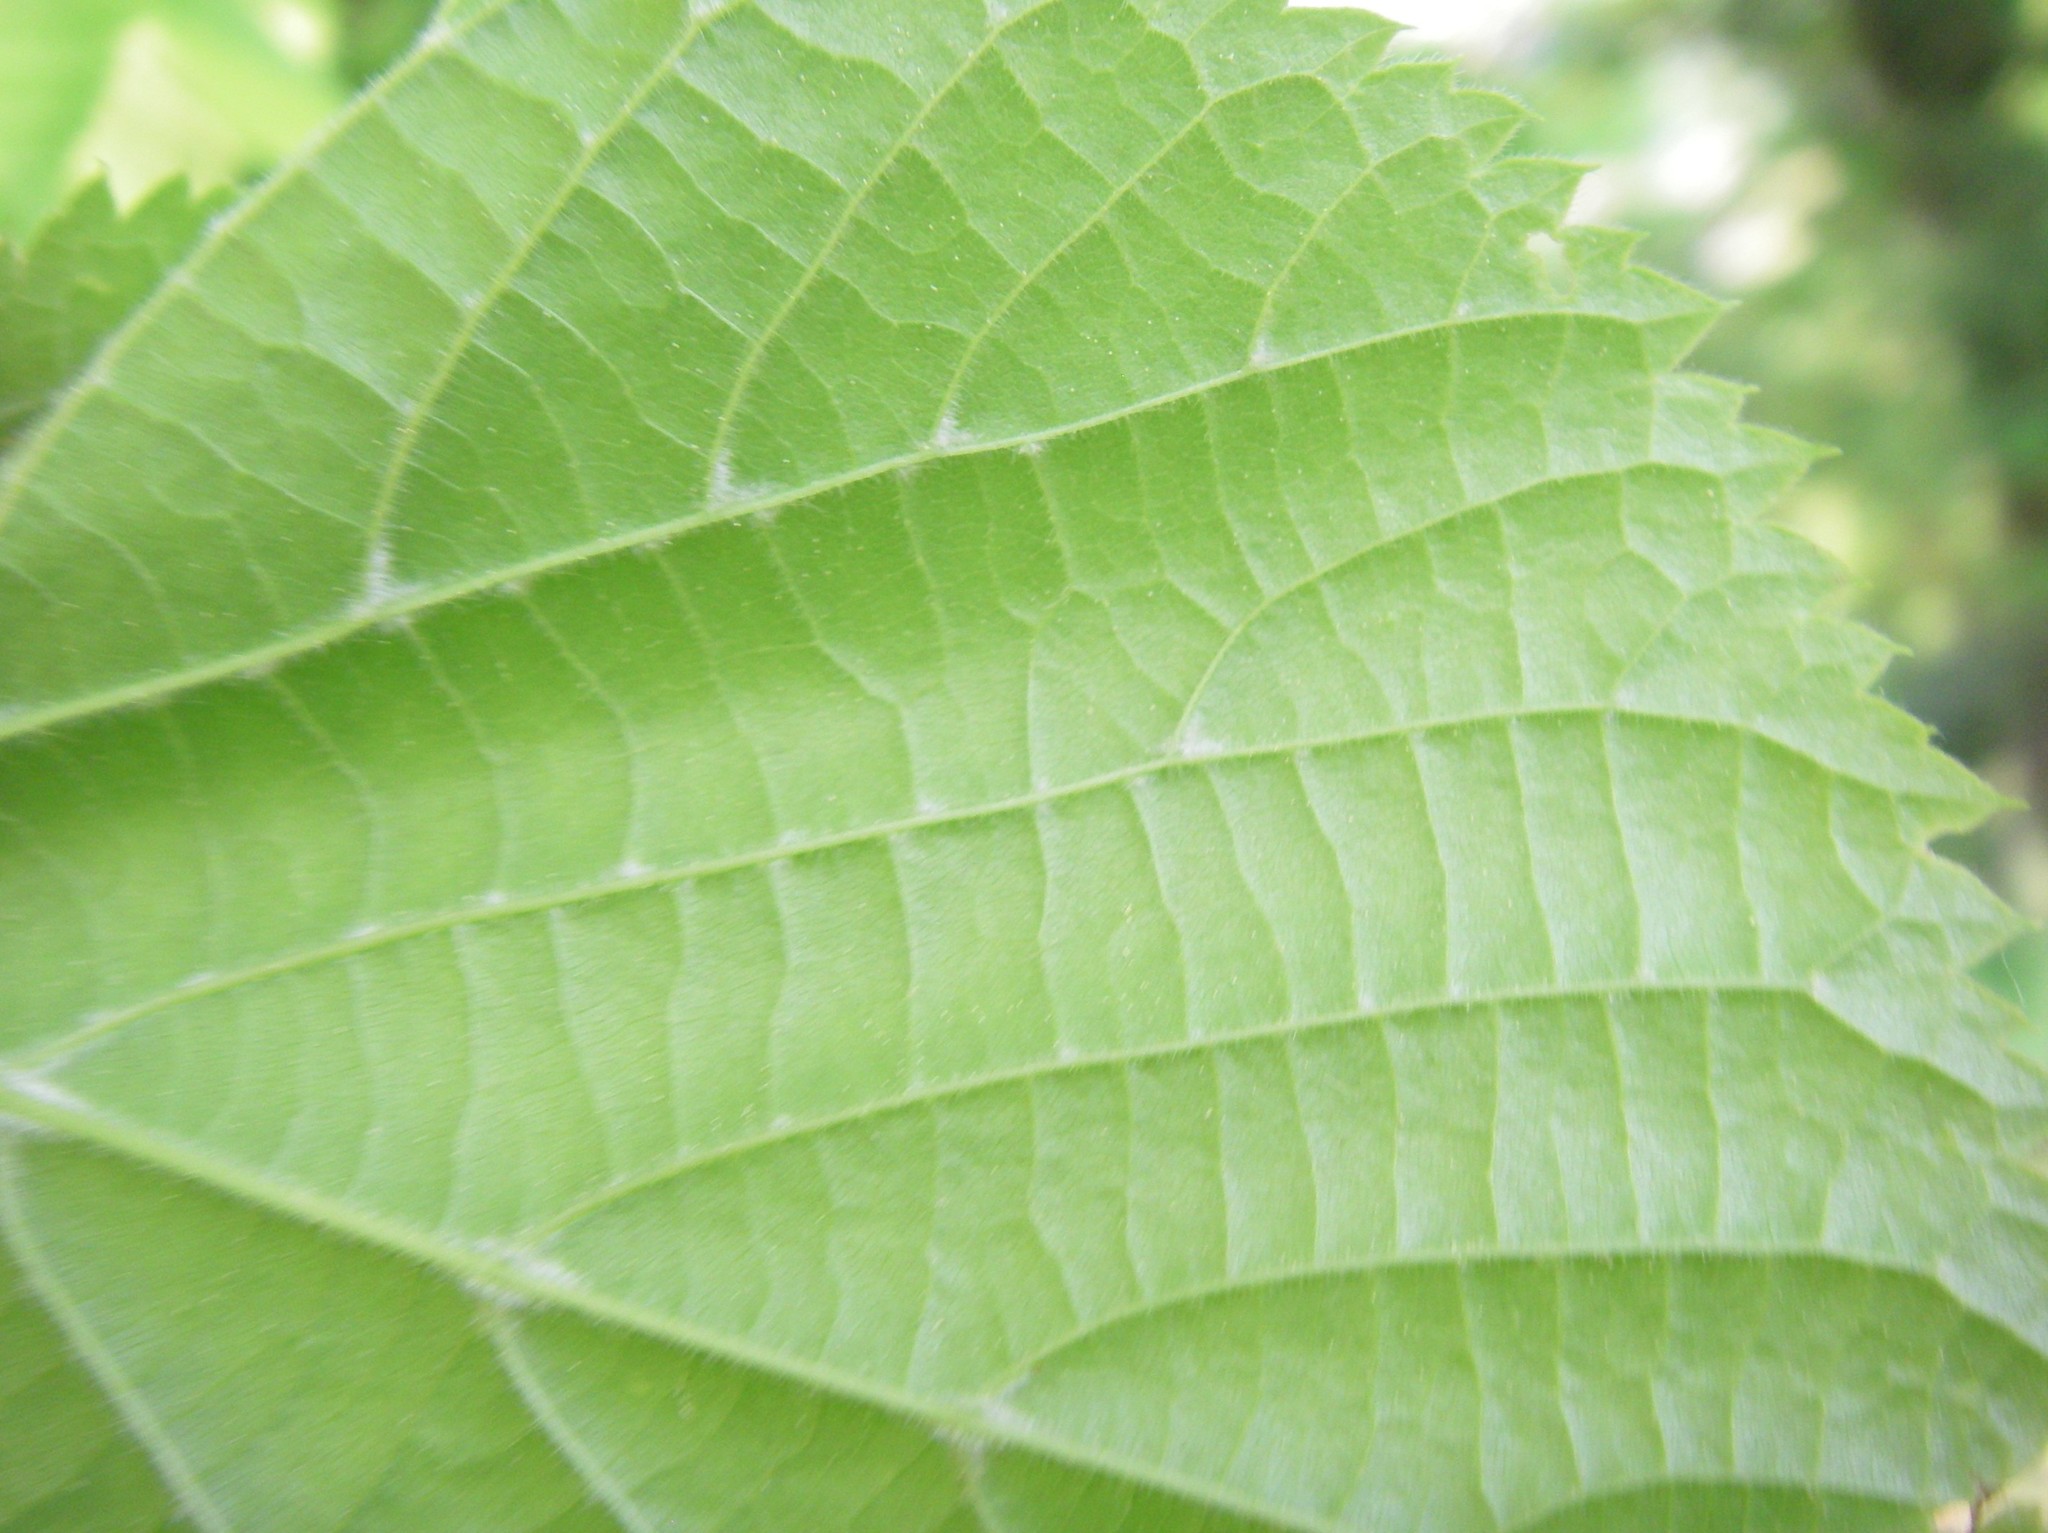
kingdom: Plantae
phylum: Tracheophyta
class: Magnoliopsida
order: Malvales
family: Malvaceae
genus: Tilia
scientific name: Tilia platyphyllos
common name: Large-leaved lime
